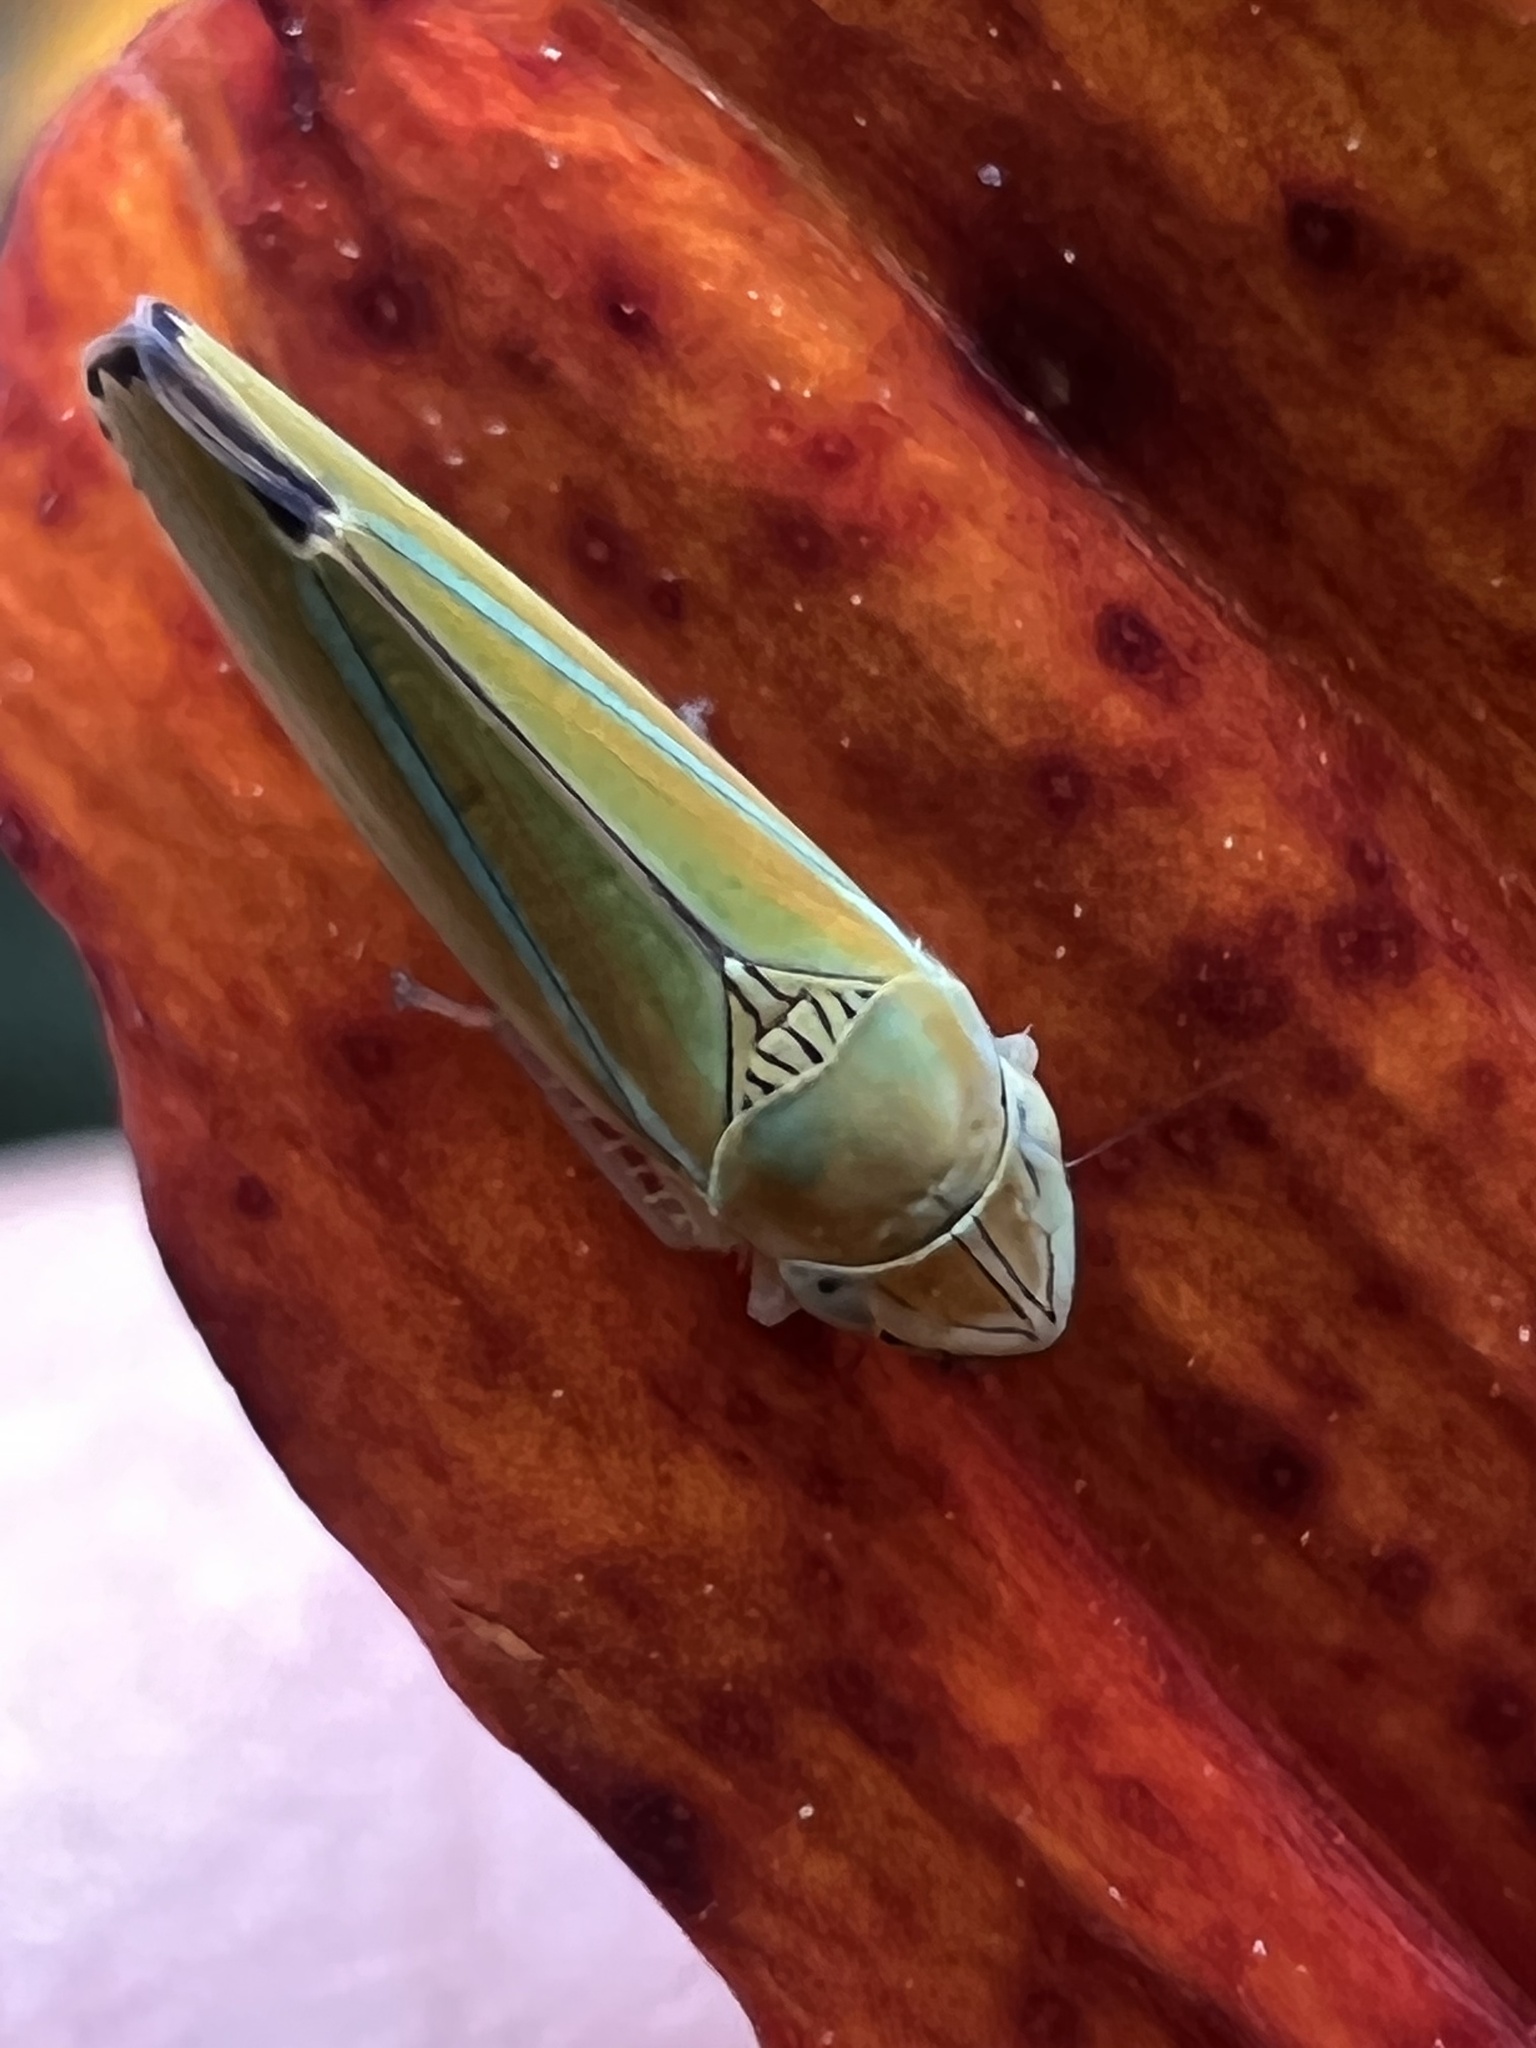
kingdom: Animalia
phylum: Arthropoda
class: Insecta
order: Hemiptera
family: Cicadellidae
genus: Graphocephala
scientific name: Graphocephala versuta
